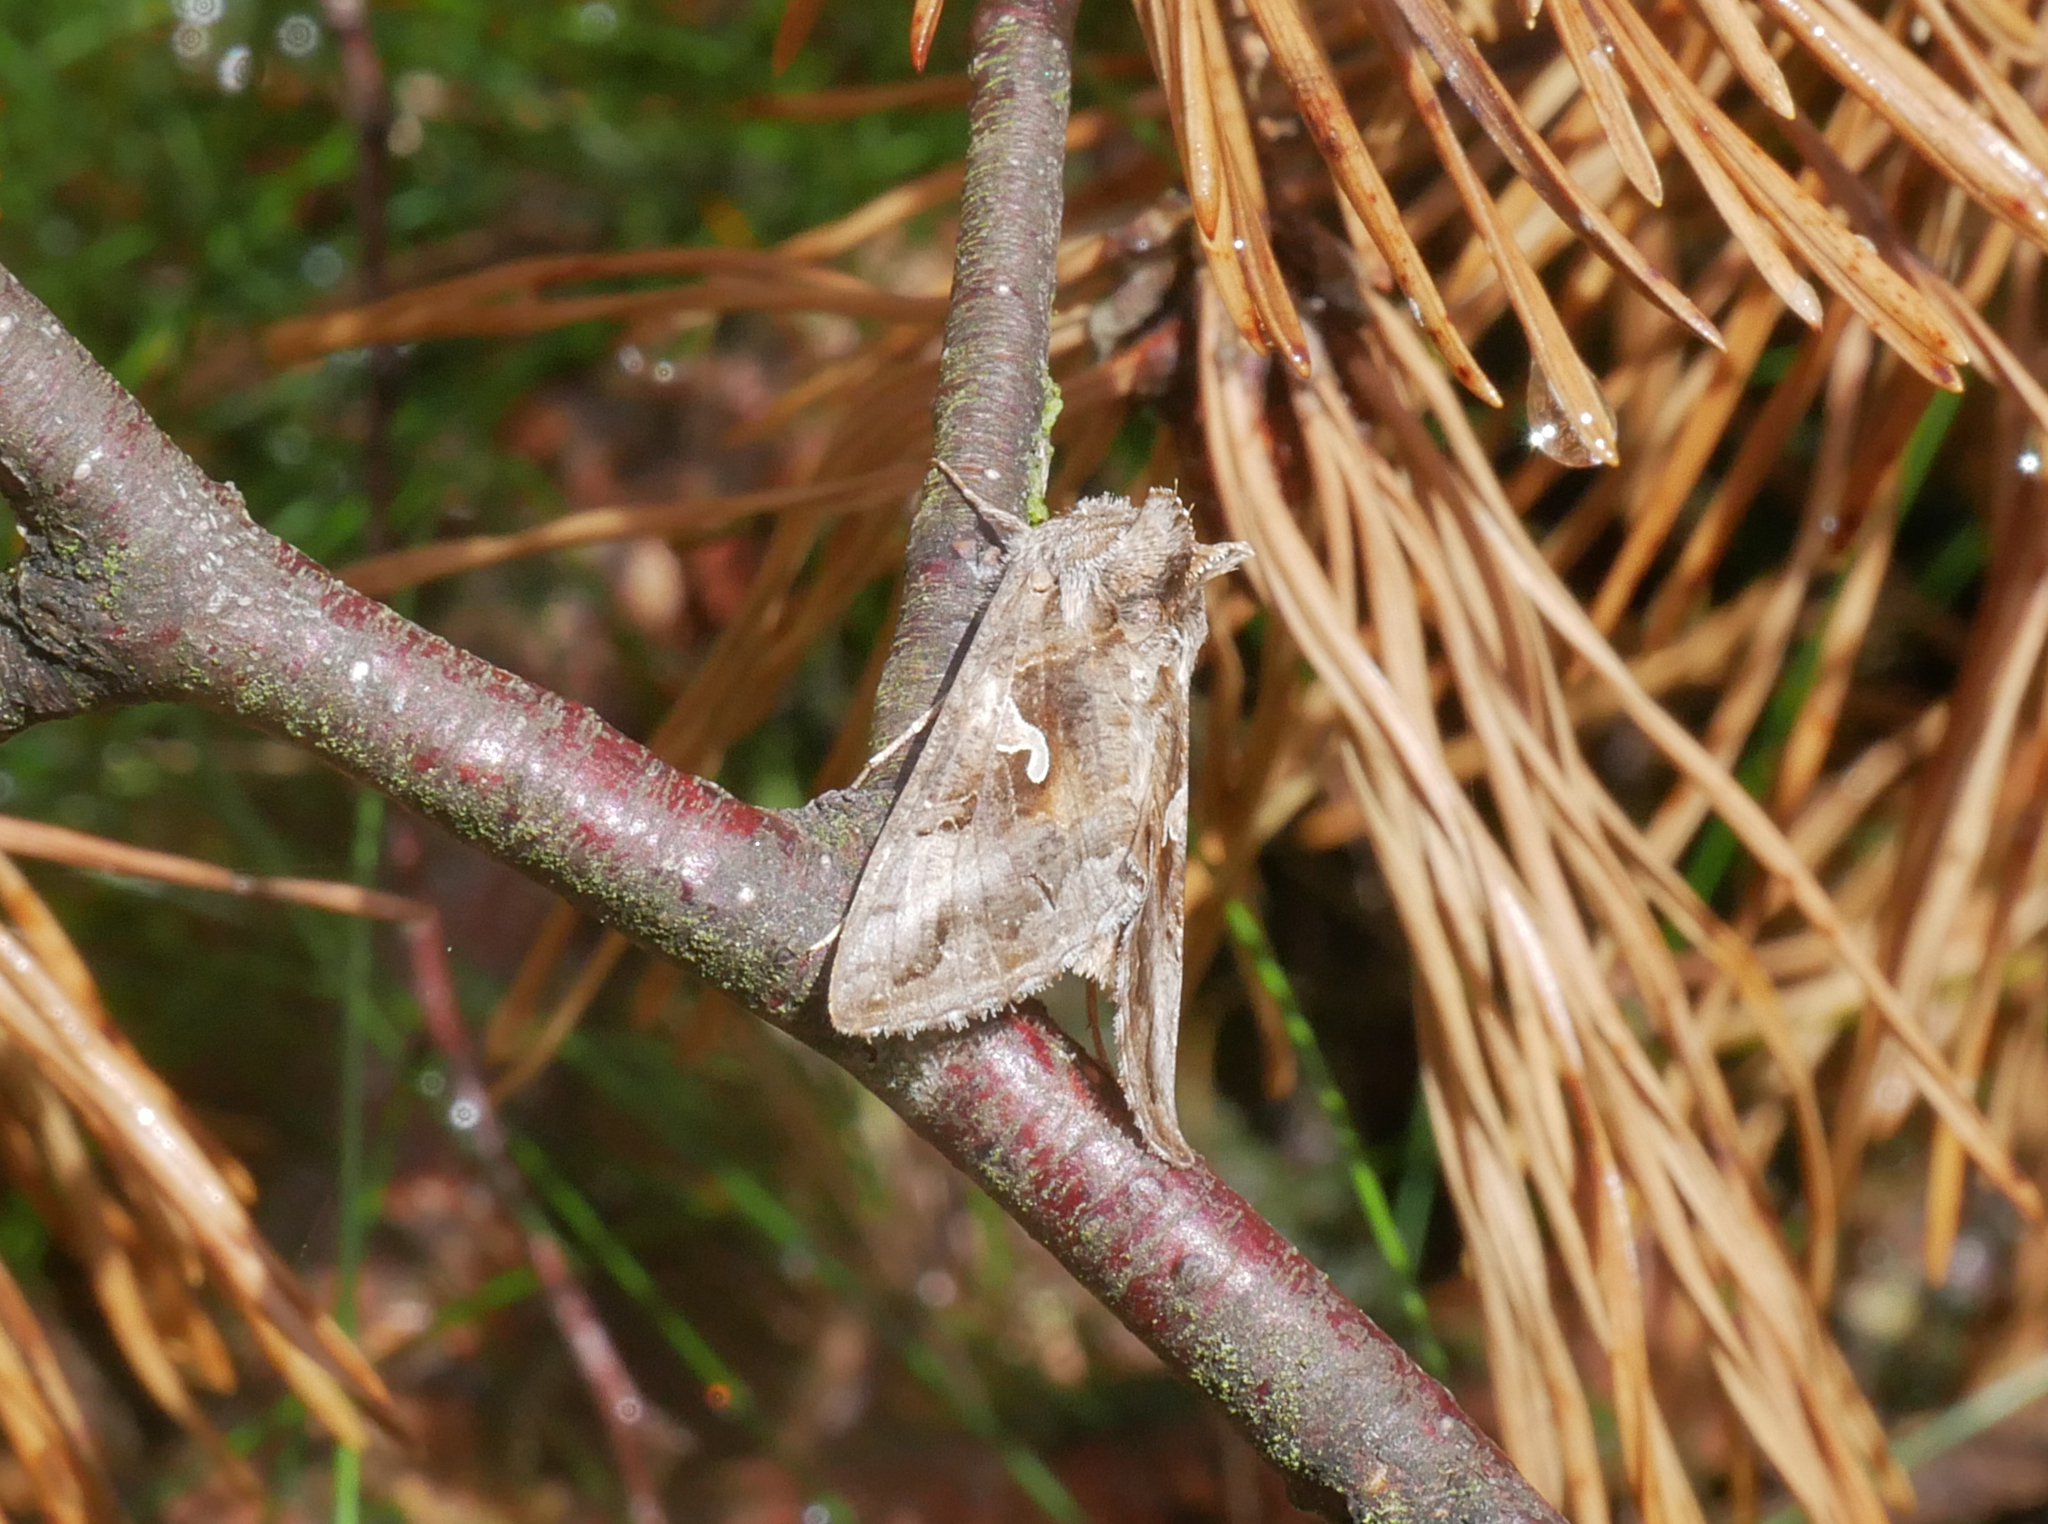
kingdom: Animalia
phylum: Arthropoda
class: Insecta
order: Lepidoptera
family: Noctuidae
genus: Autographa
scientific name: Autographa gamma
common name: Silver y
